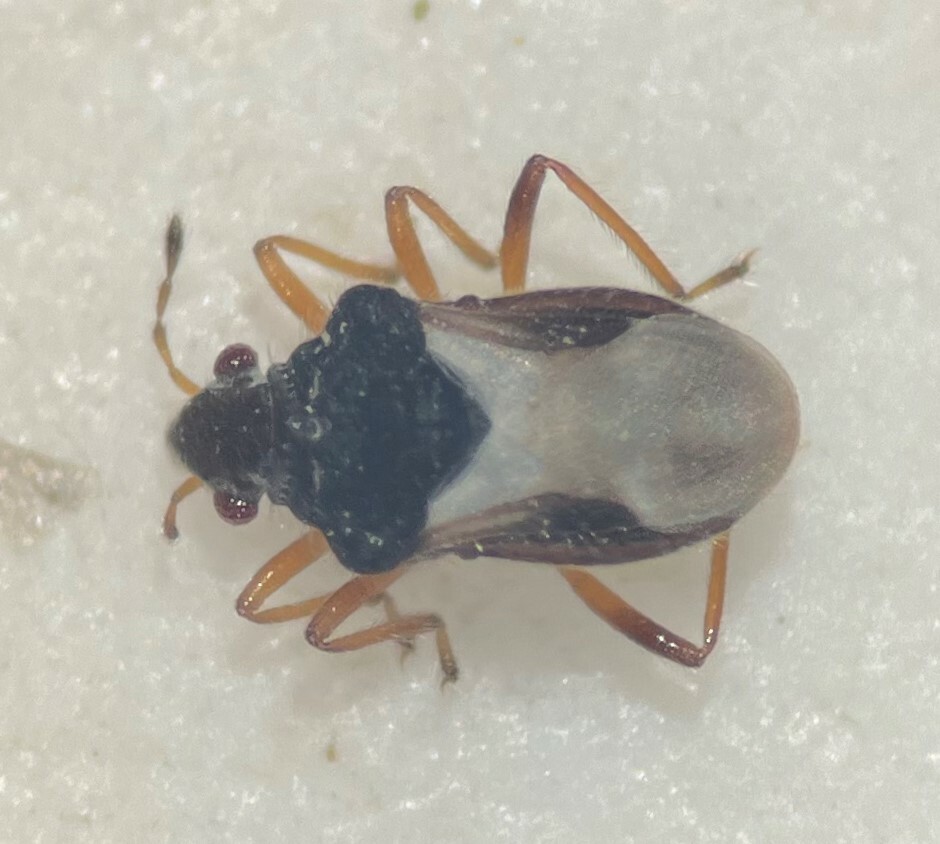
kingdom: Animalia
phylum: Arthropoda
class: Insecta
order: Hemiptera
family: Hebridae
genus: Merragata
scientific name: Merragata brunnea
